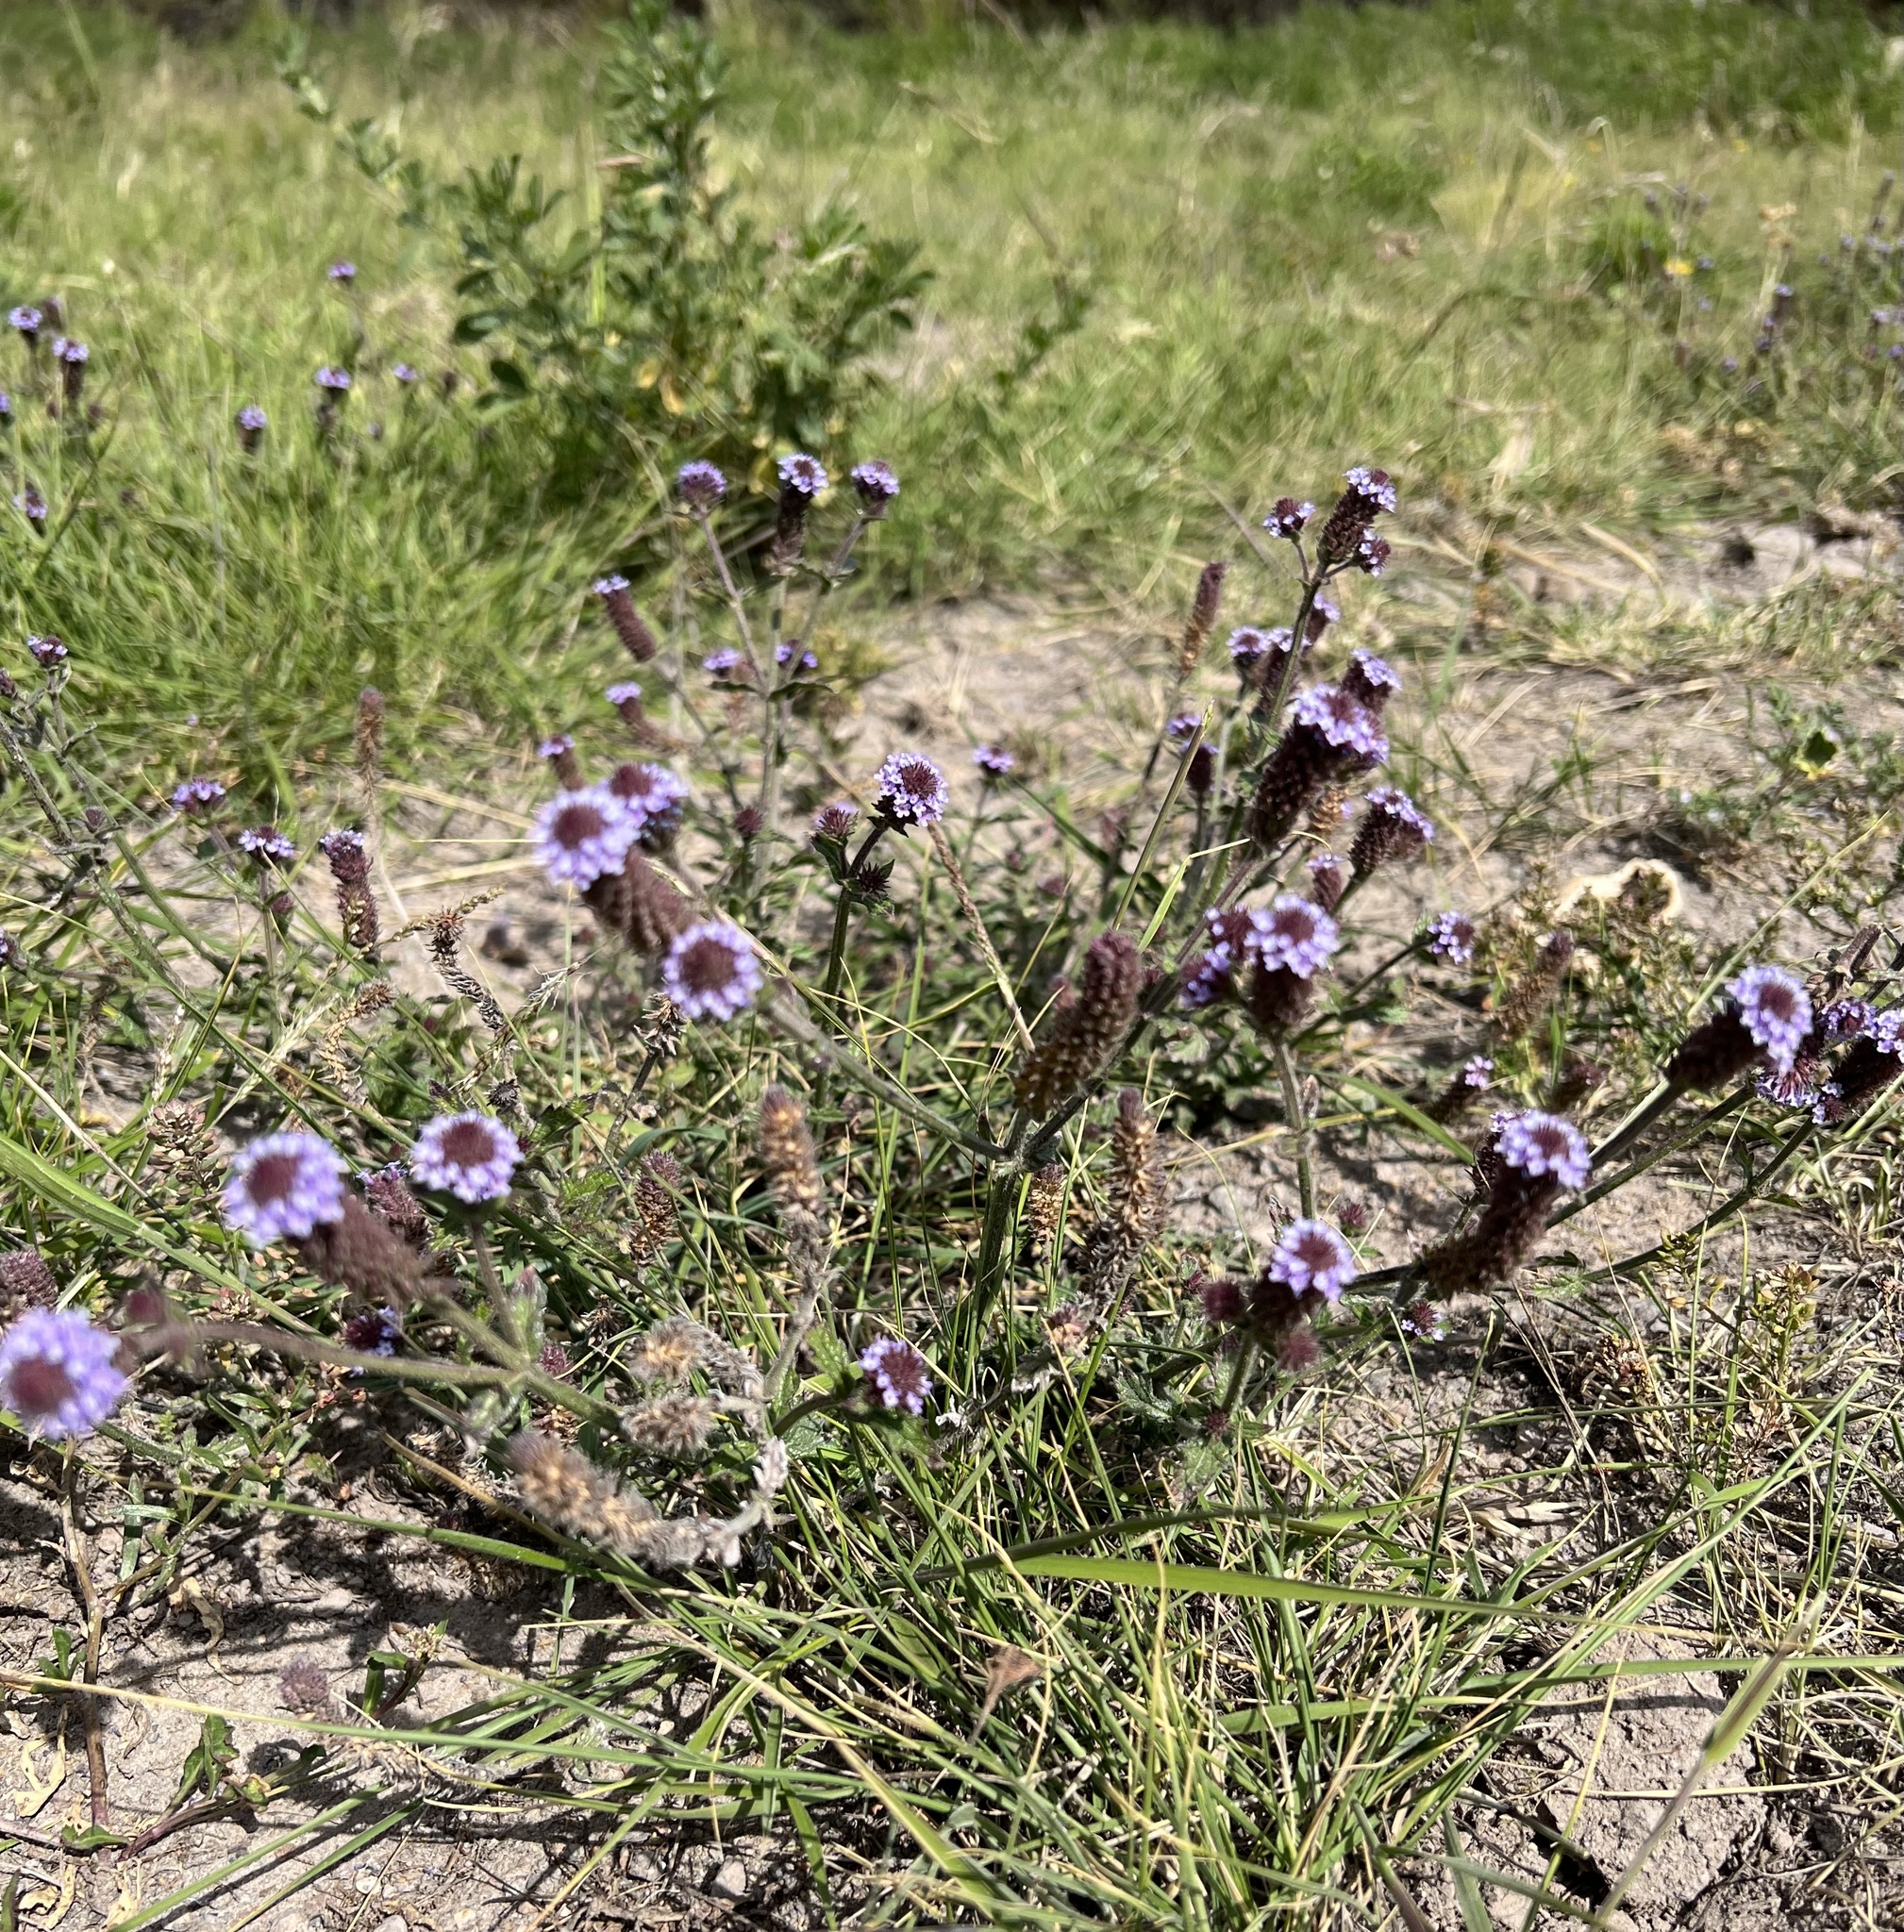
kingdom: Plantae
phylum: Tracheophyta
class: Magnoliopsida
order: Lamiales
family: Verbenaceae
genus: Verbena
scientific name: Verbena hispida
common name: Hairy vervain
